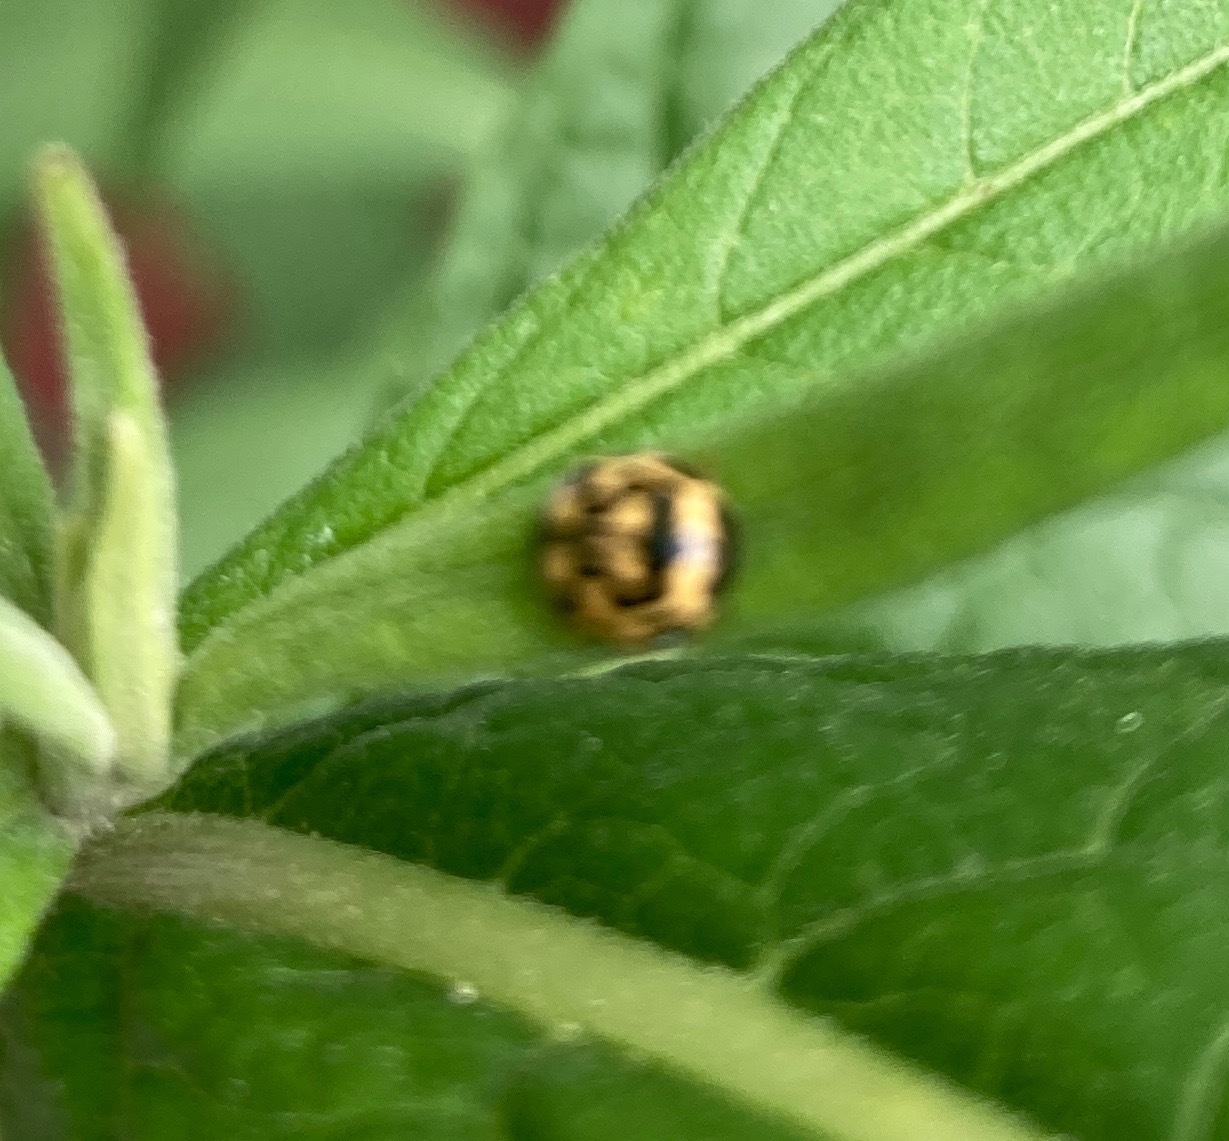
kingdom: Animalia
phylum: Arthropoda
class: Insecta
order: Coleoptera
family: Coccinellidae
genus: Propylaea
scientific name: Propylaea quatuordecimpunctata
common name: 14-spotted ladybird beetle
